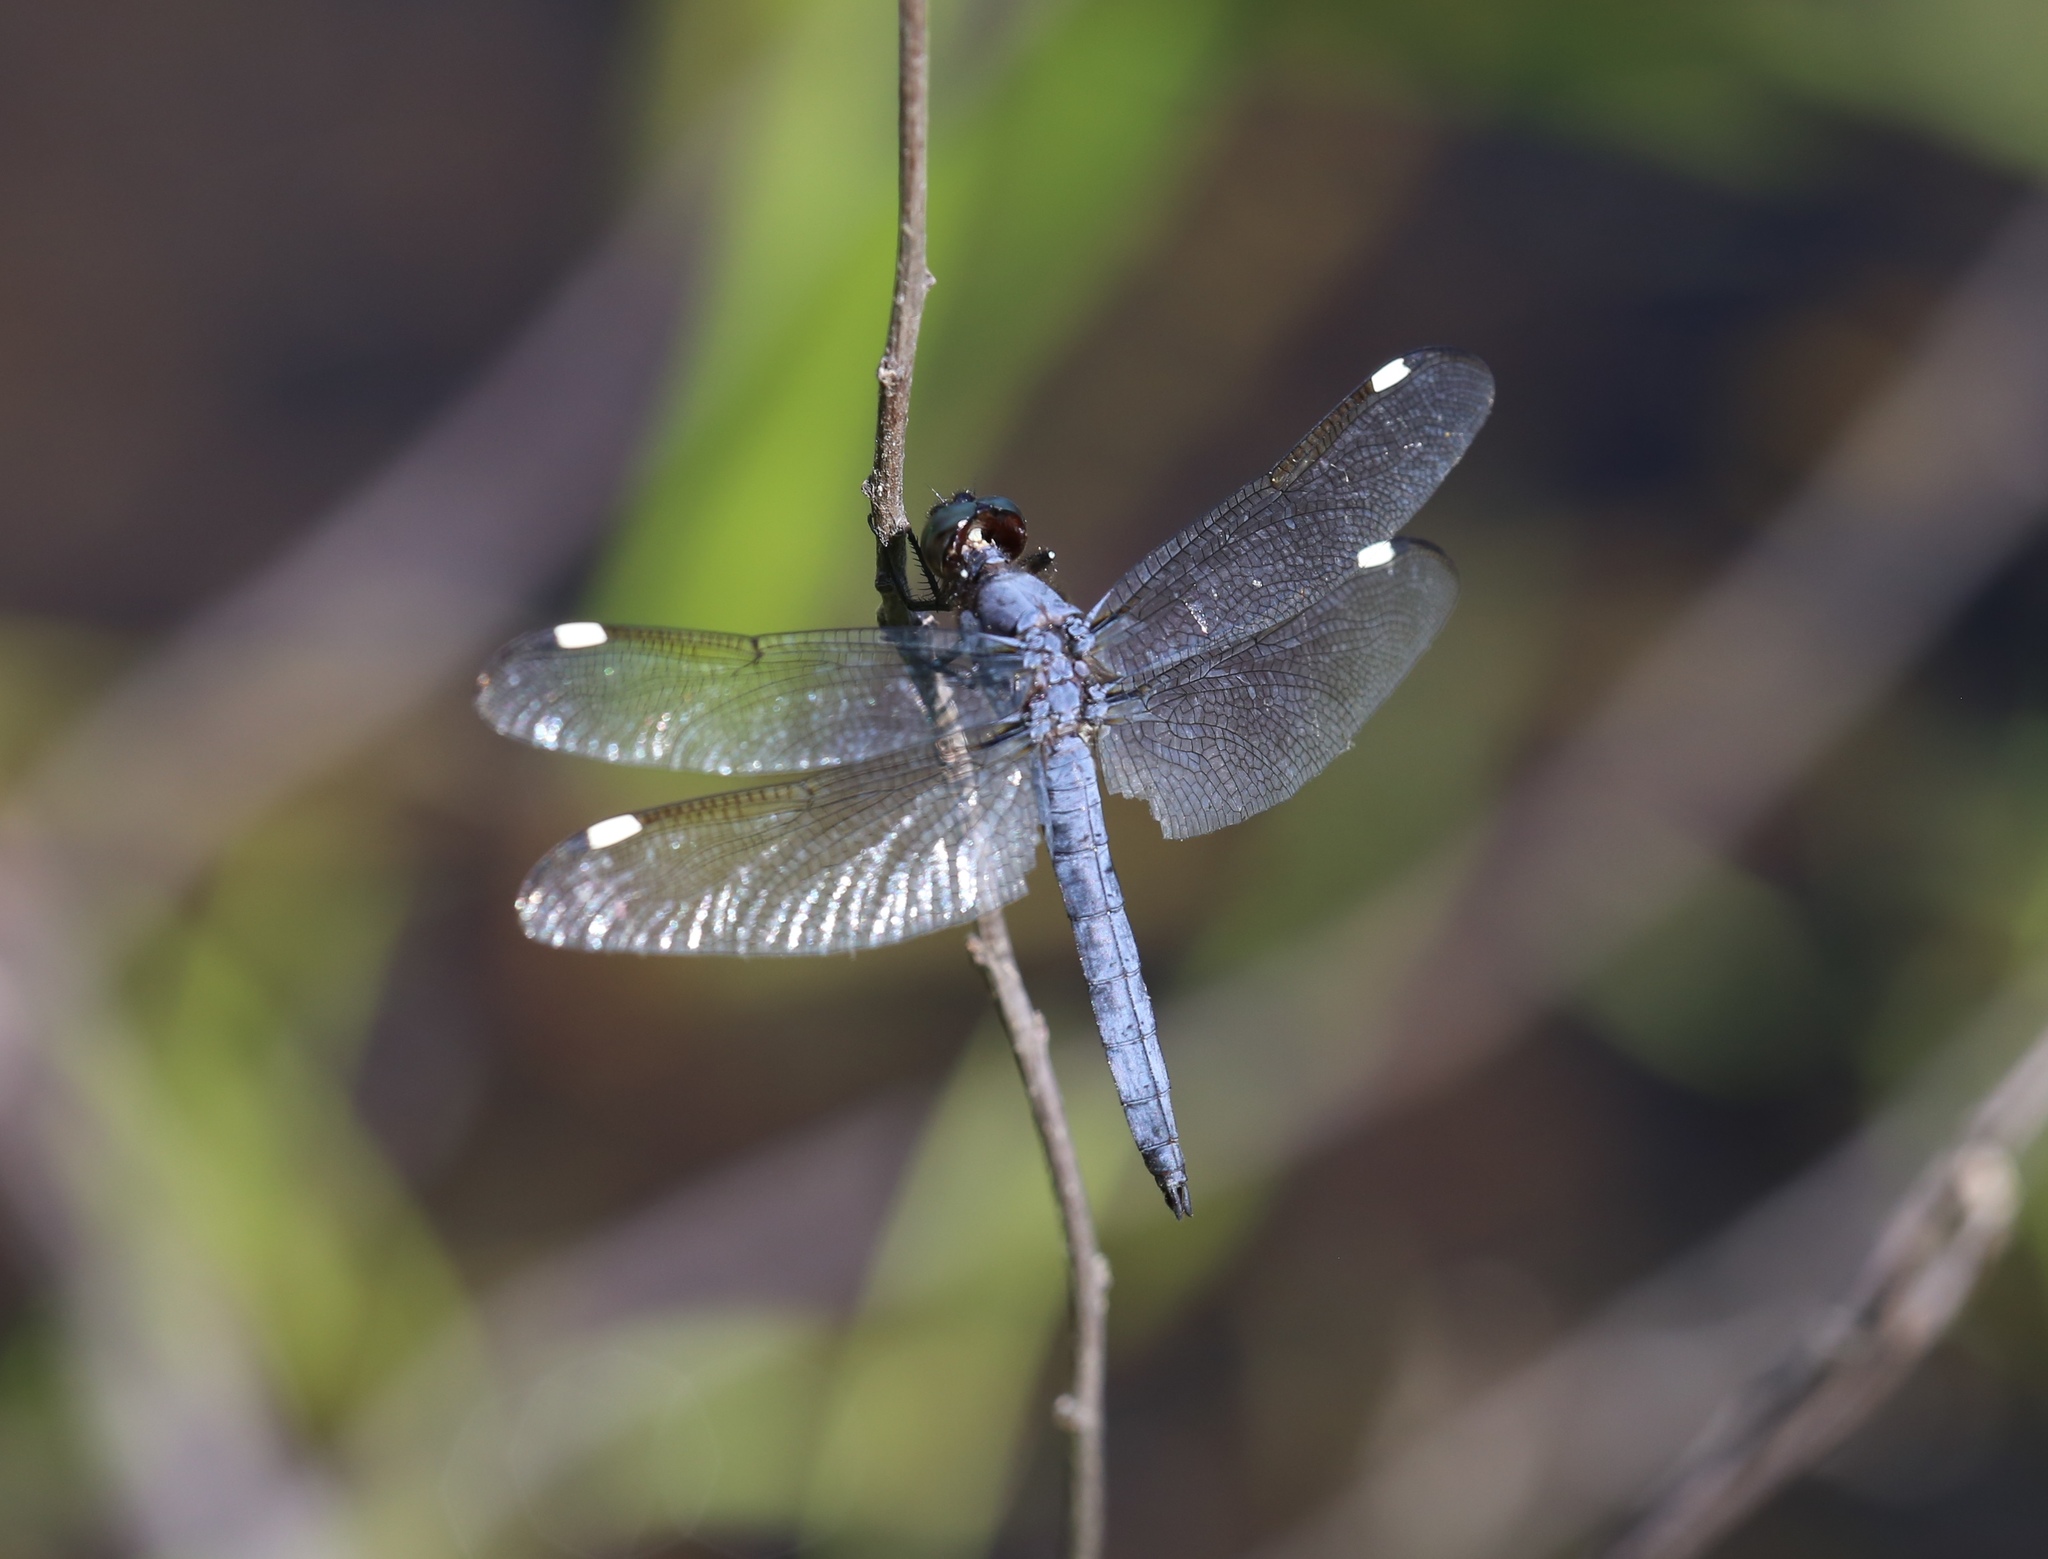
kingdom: Animalia
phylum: Arthropoda
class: Insecta
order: Odonata
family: Libellulidae
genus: Libellula
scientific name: Libellula cyanea
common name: Spangled skimmer
